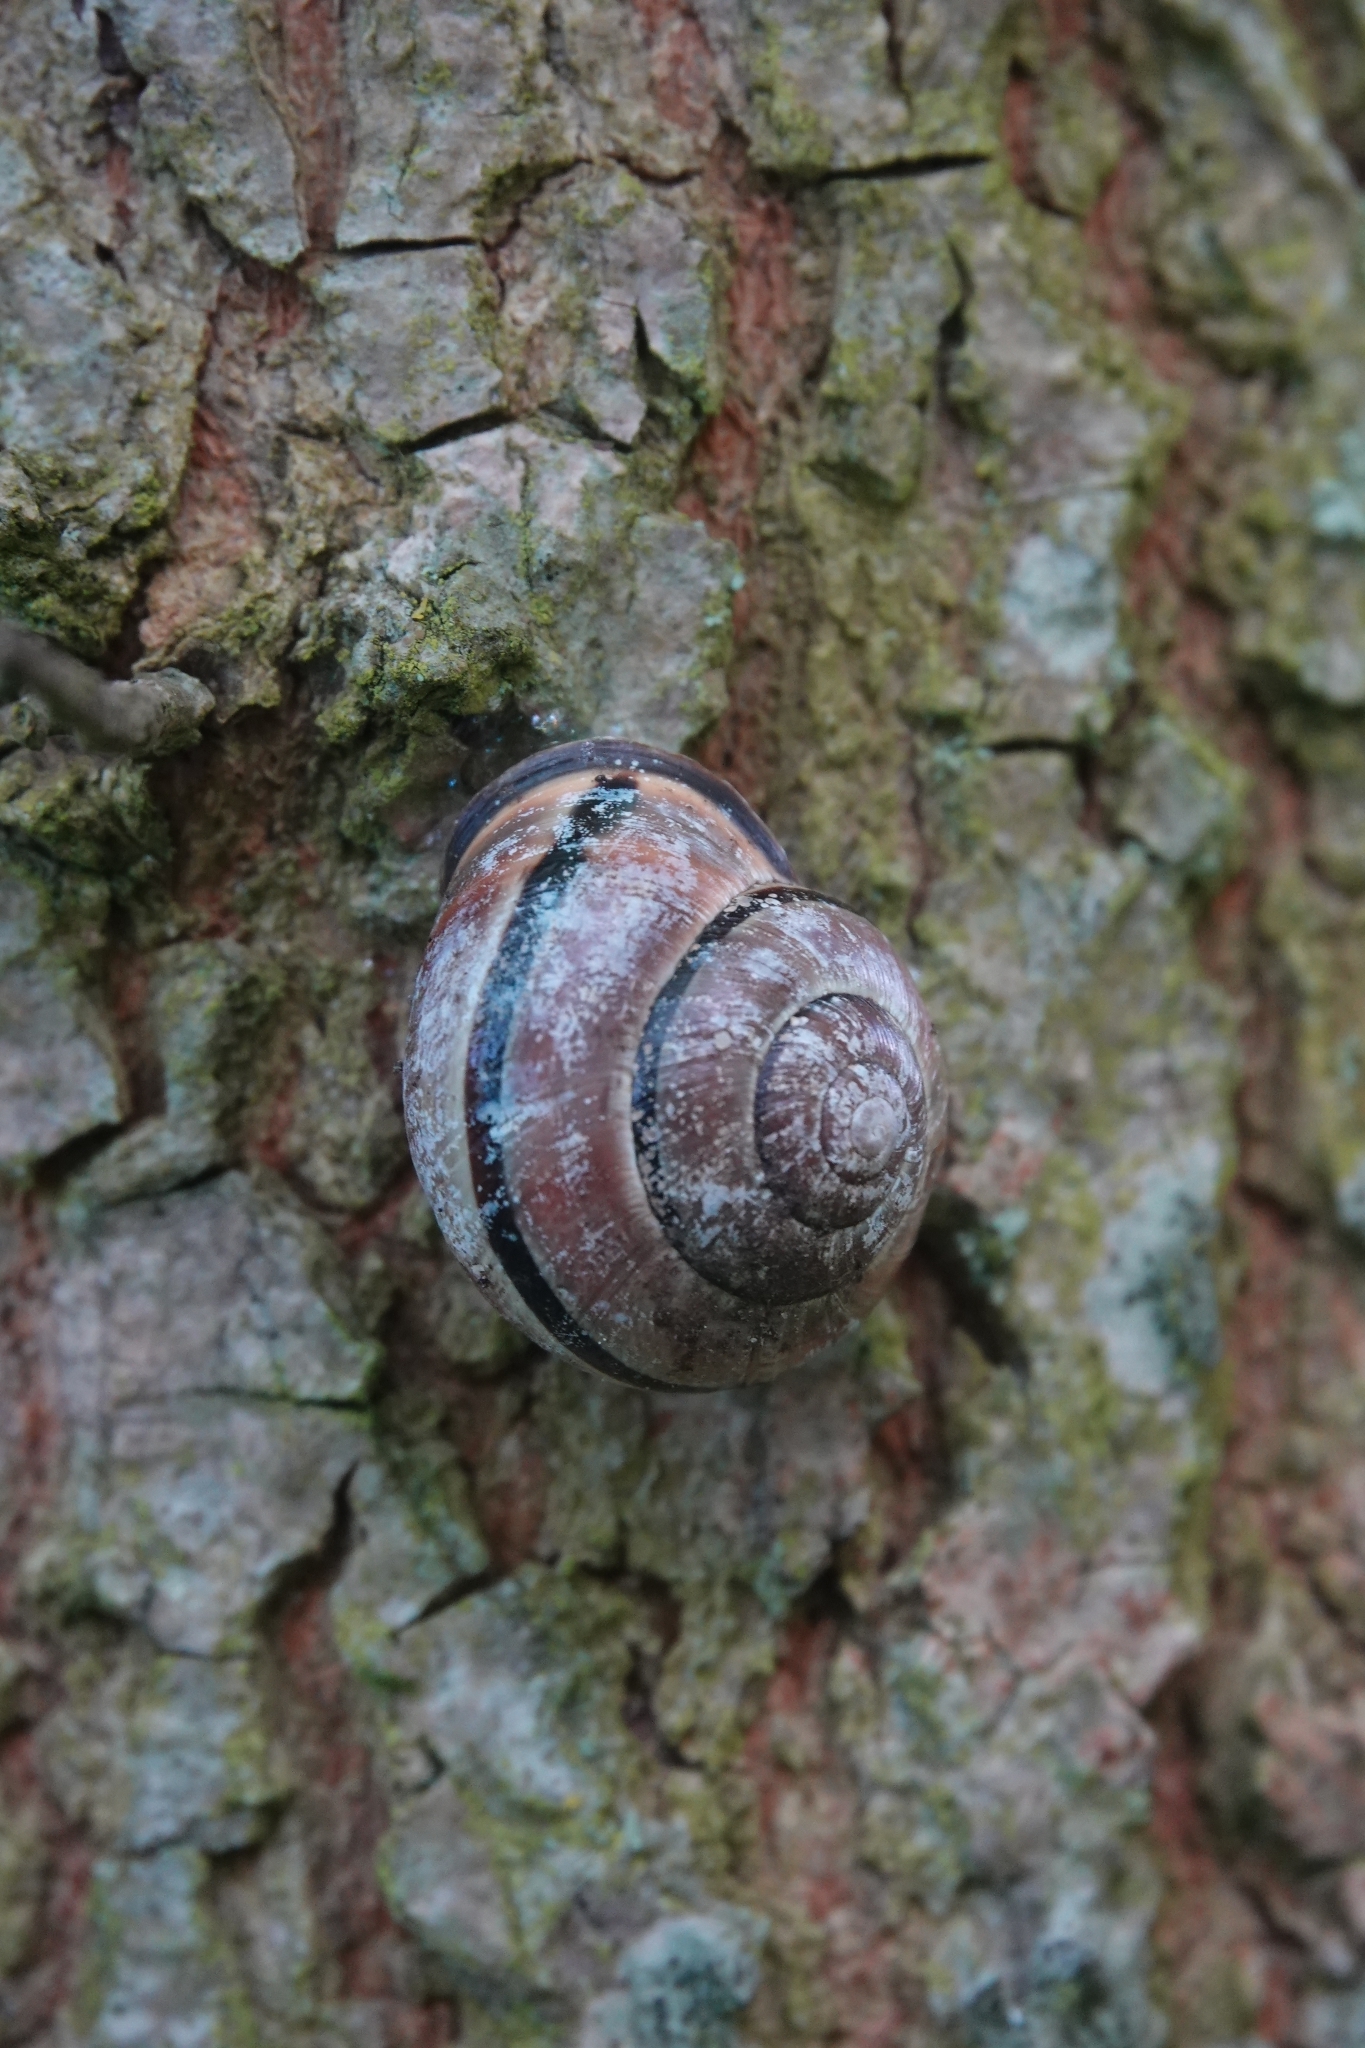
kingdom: Animalia
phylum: Mollusca
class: Gastropoda
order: Stylommatophora
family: Helicidae
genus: Cepaea
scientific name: Cepaea nemoralis
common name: Grovesnail
